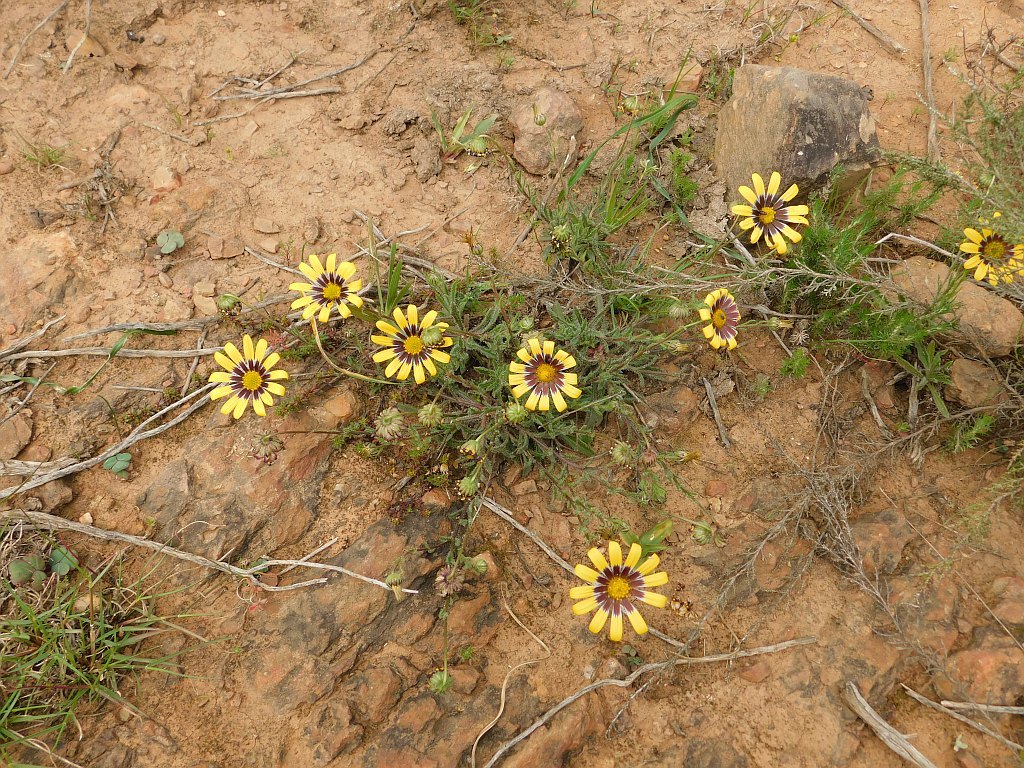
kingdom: Plantae
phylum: Tracheophyta
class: Magnoliopsida
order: Asterales
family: Asteraceae
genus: Osteospermum
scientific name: Osteospermum scariosum
